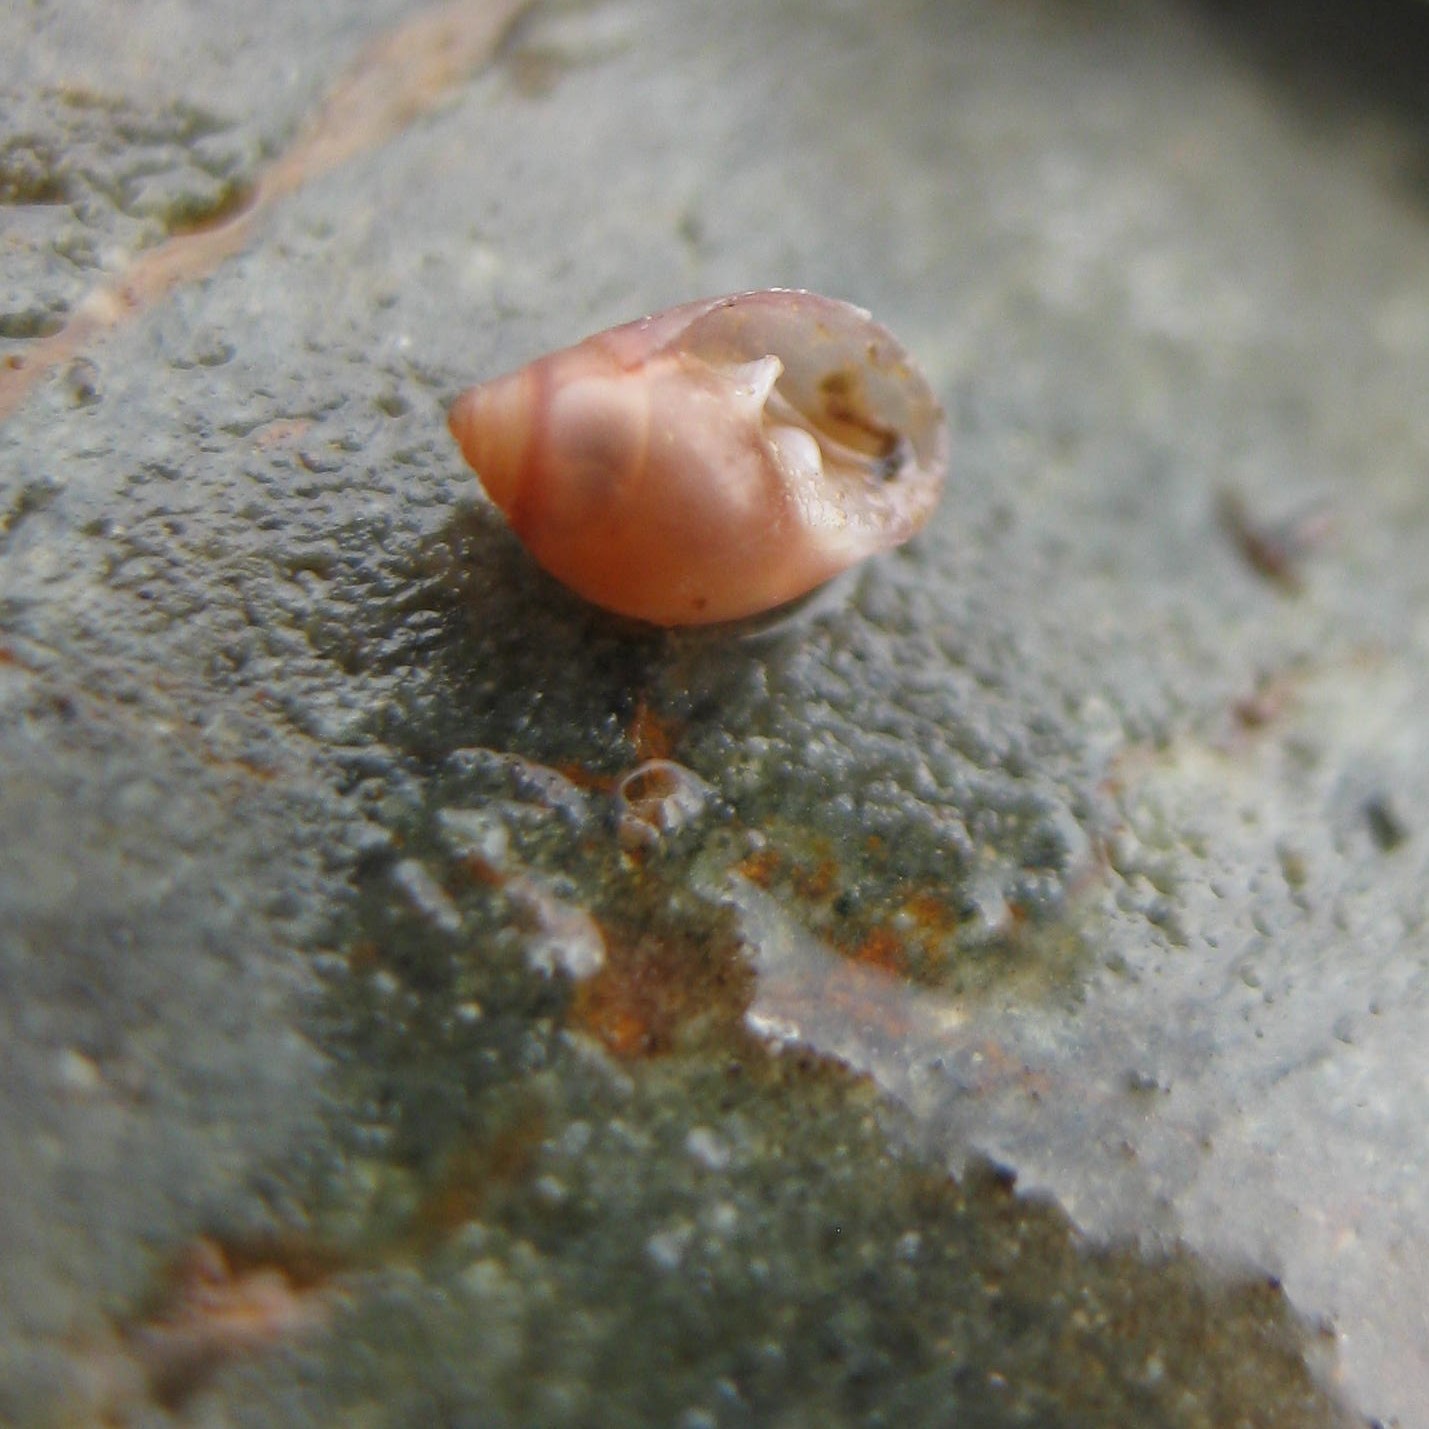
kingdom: Animalia
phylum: Mollusca
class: Gastropoda
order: Ellobiida
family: Ellobiidae
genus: Marinula
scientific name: Marinula filholi
